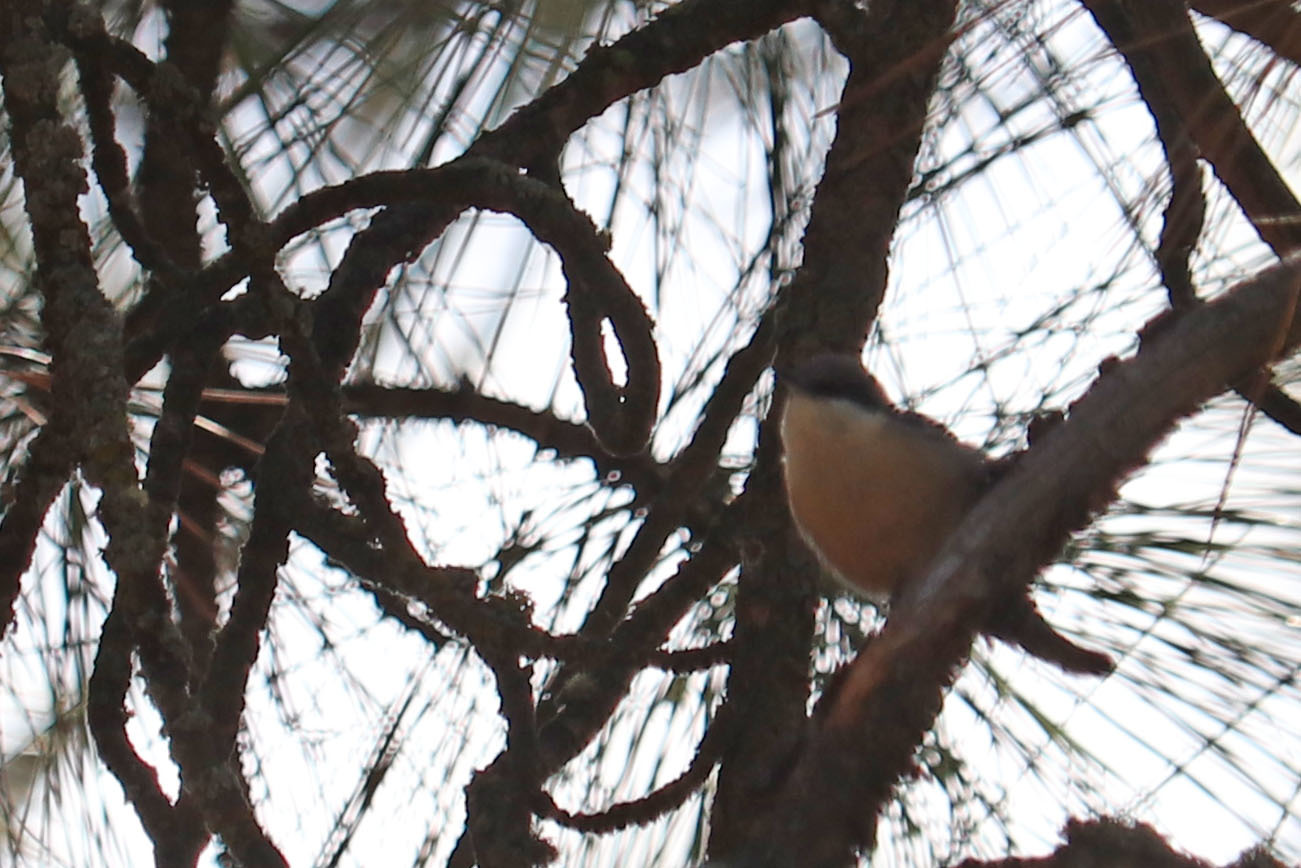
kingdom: Animalia
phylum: Chordata
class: Aves
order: Passeriformes
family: Sittidae
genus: Sitta
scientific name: Sitta pygmaea
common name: Pygmy nuthatch
